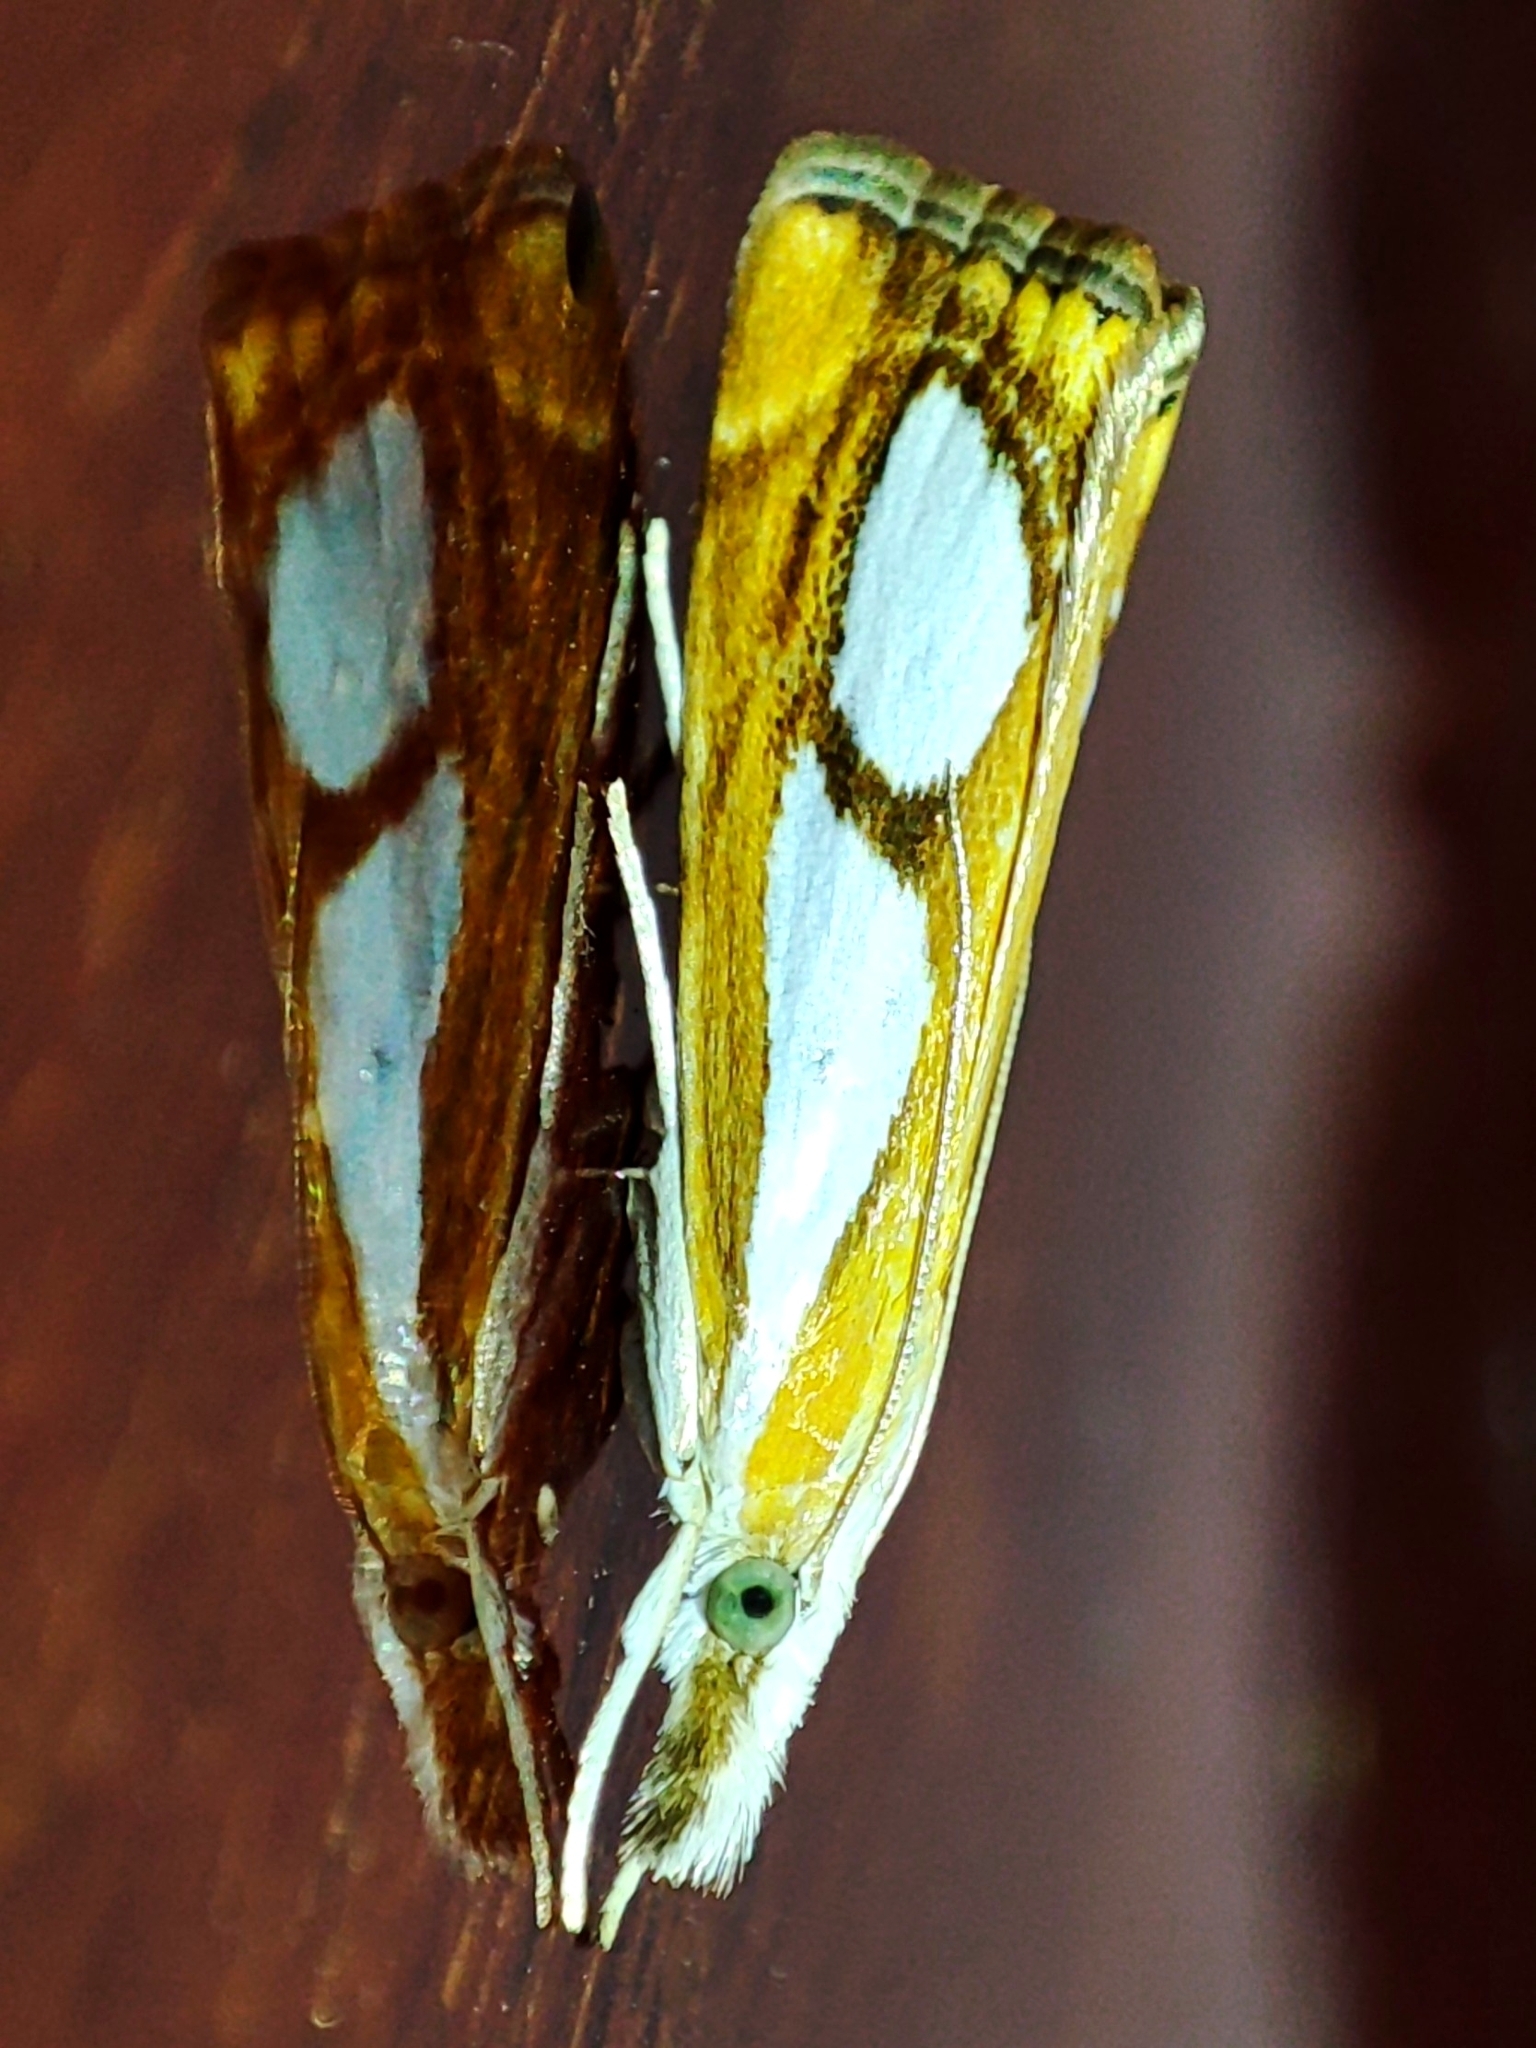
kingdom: Animalia
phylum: Arthropoda
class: Insecta
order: Lepidoptera
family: Crambidae
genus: Catoptria
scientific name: Catoptria pinella
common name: Pearl grass-veneer
